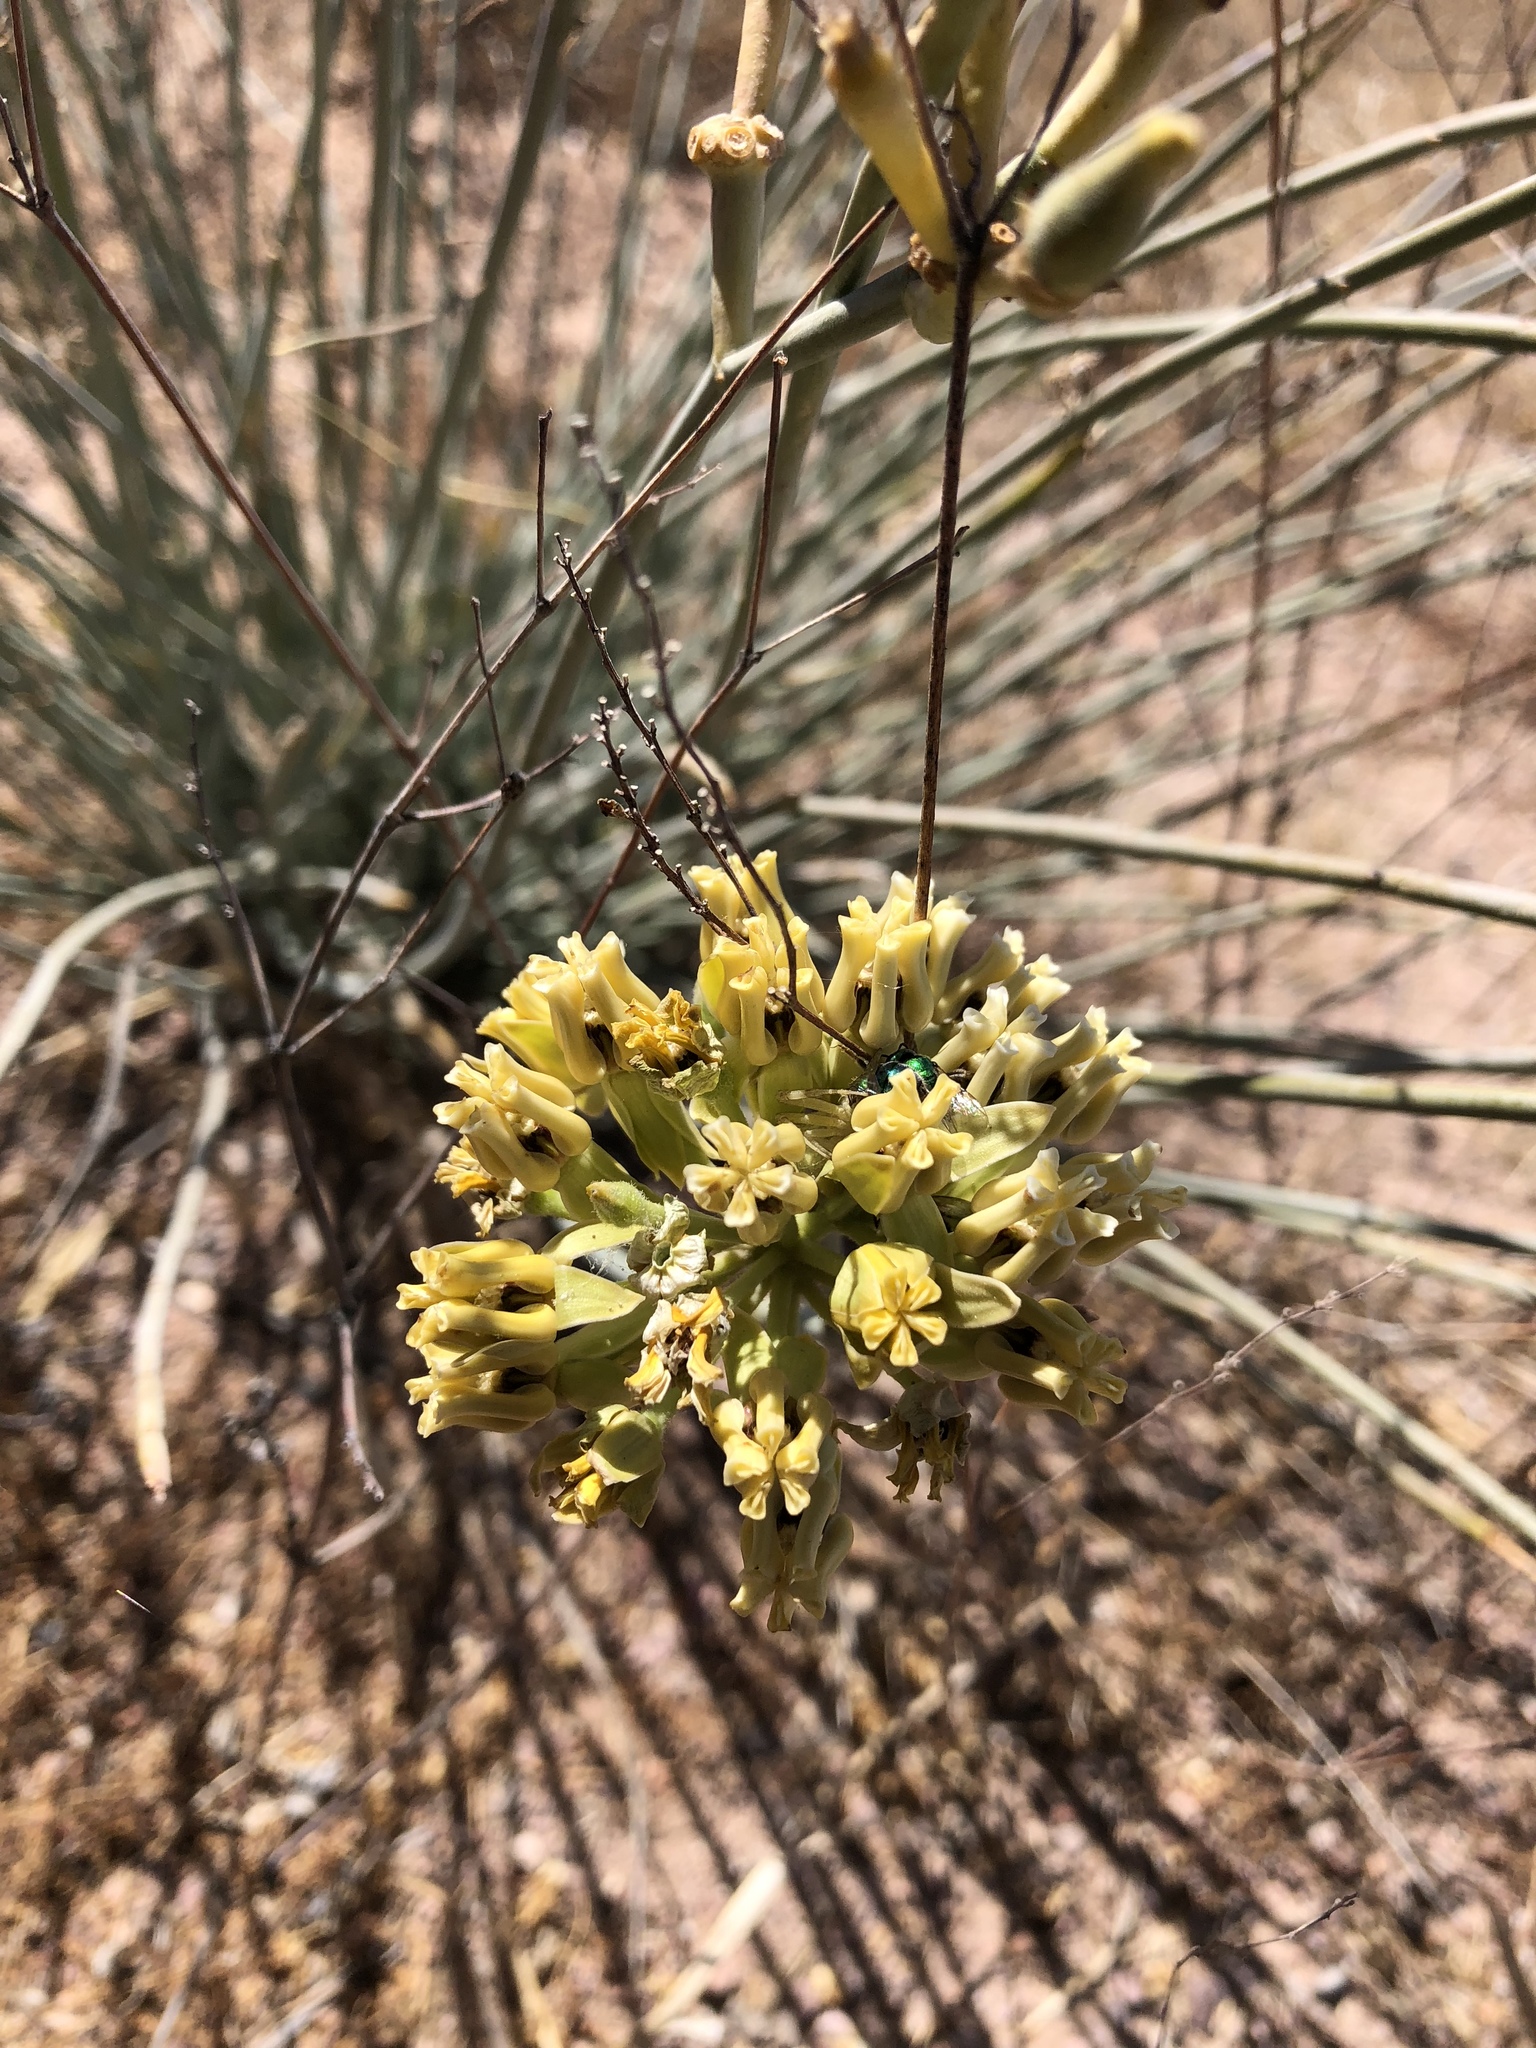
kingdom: Plantae
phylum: Tracheophyta
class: Magnoliopsida
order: Gentianales
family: Apocynaceae
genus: Asclepias
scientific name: Asclepias subulata
